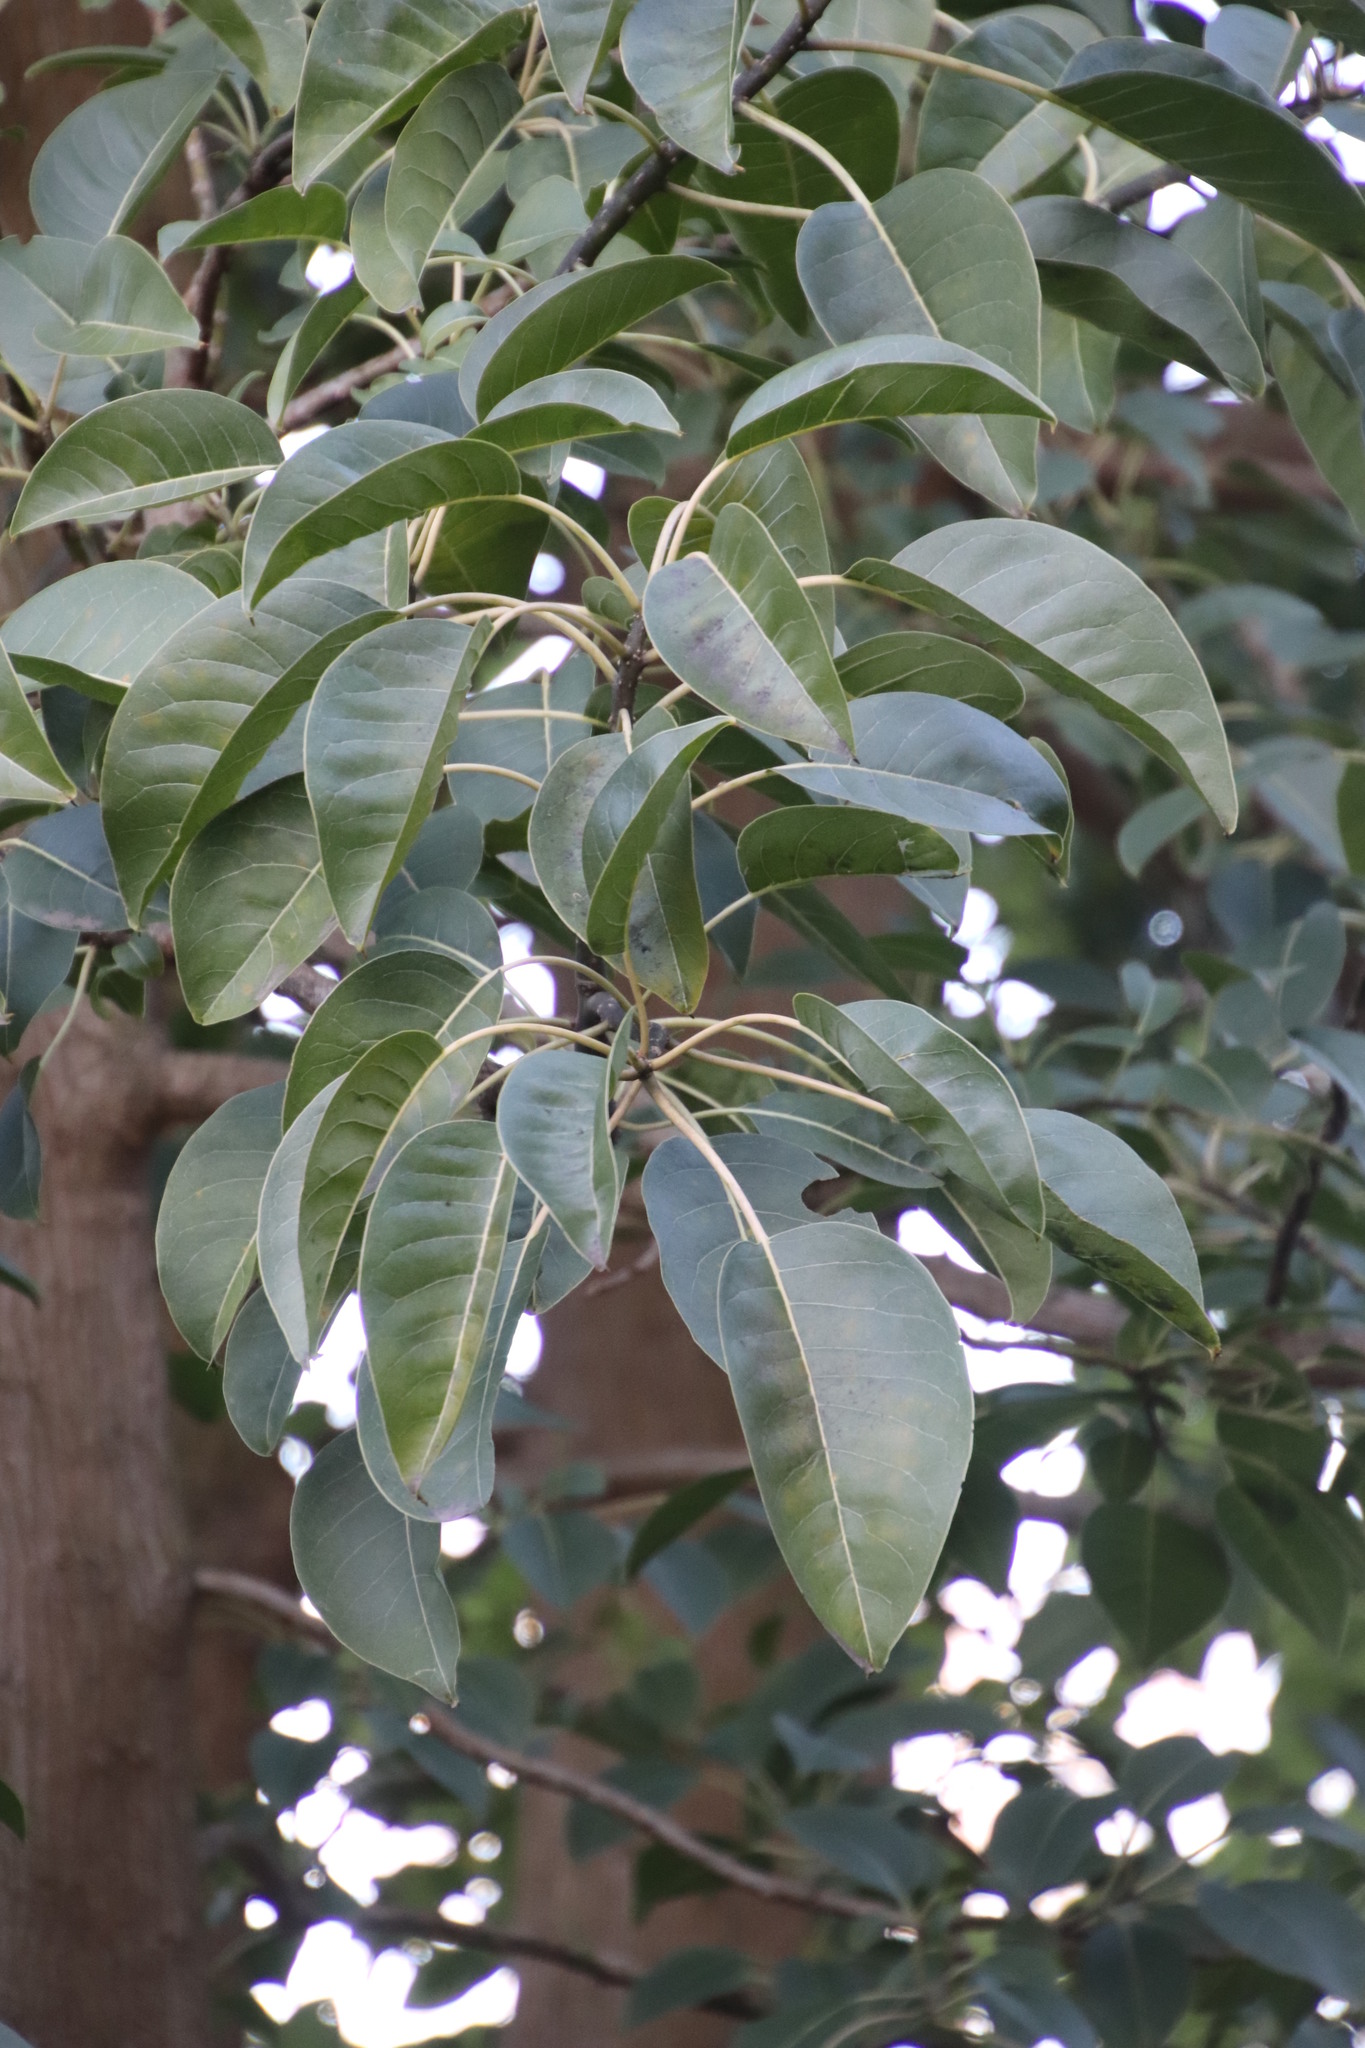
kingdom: Plantae
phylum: Tracheophyta
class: Magnoliopsida
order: Caryophyllales
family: Phytolaccaceae
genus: Phytolacca
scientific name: Phytolacca dioica
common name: Pokeweed
